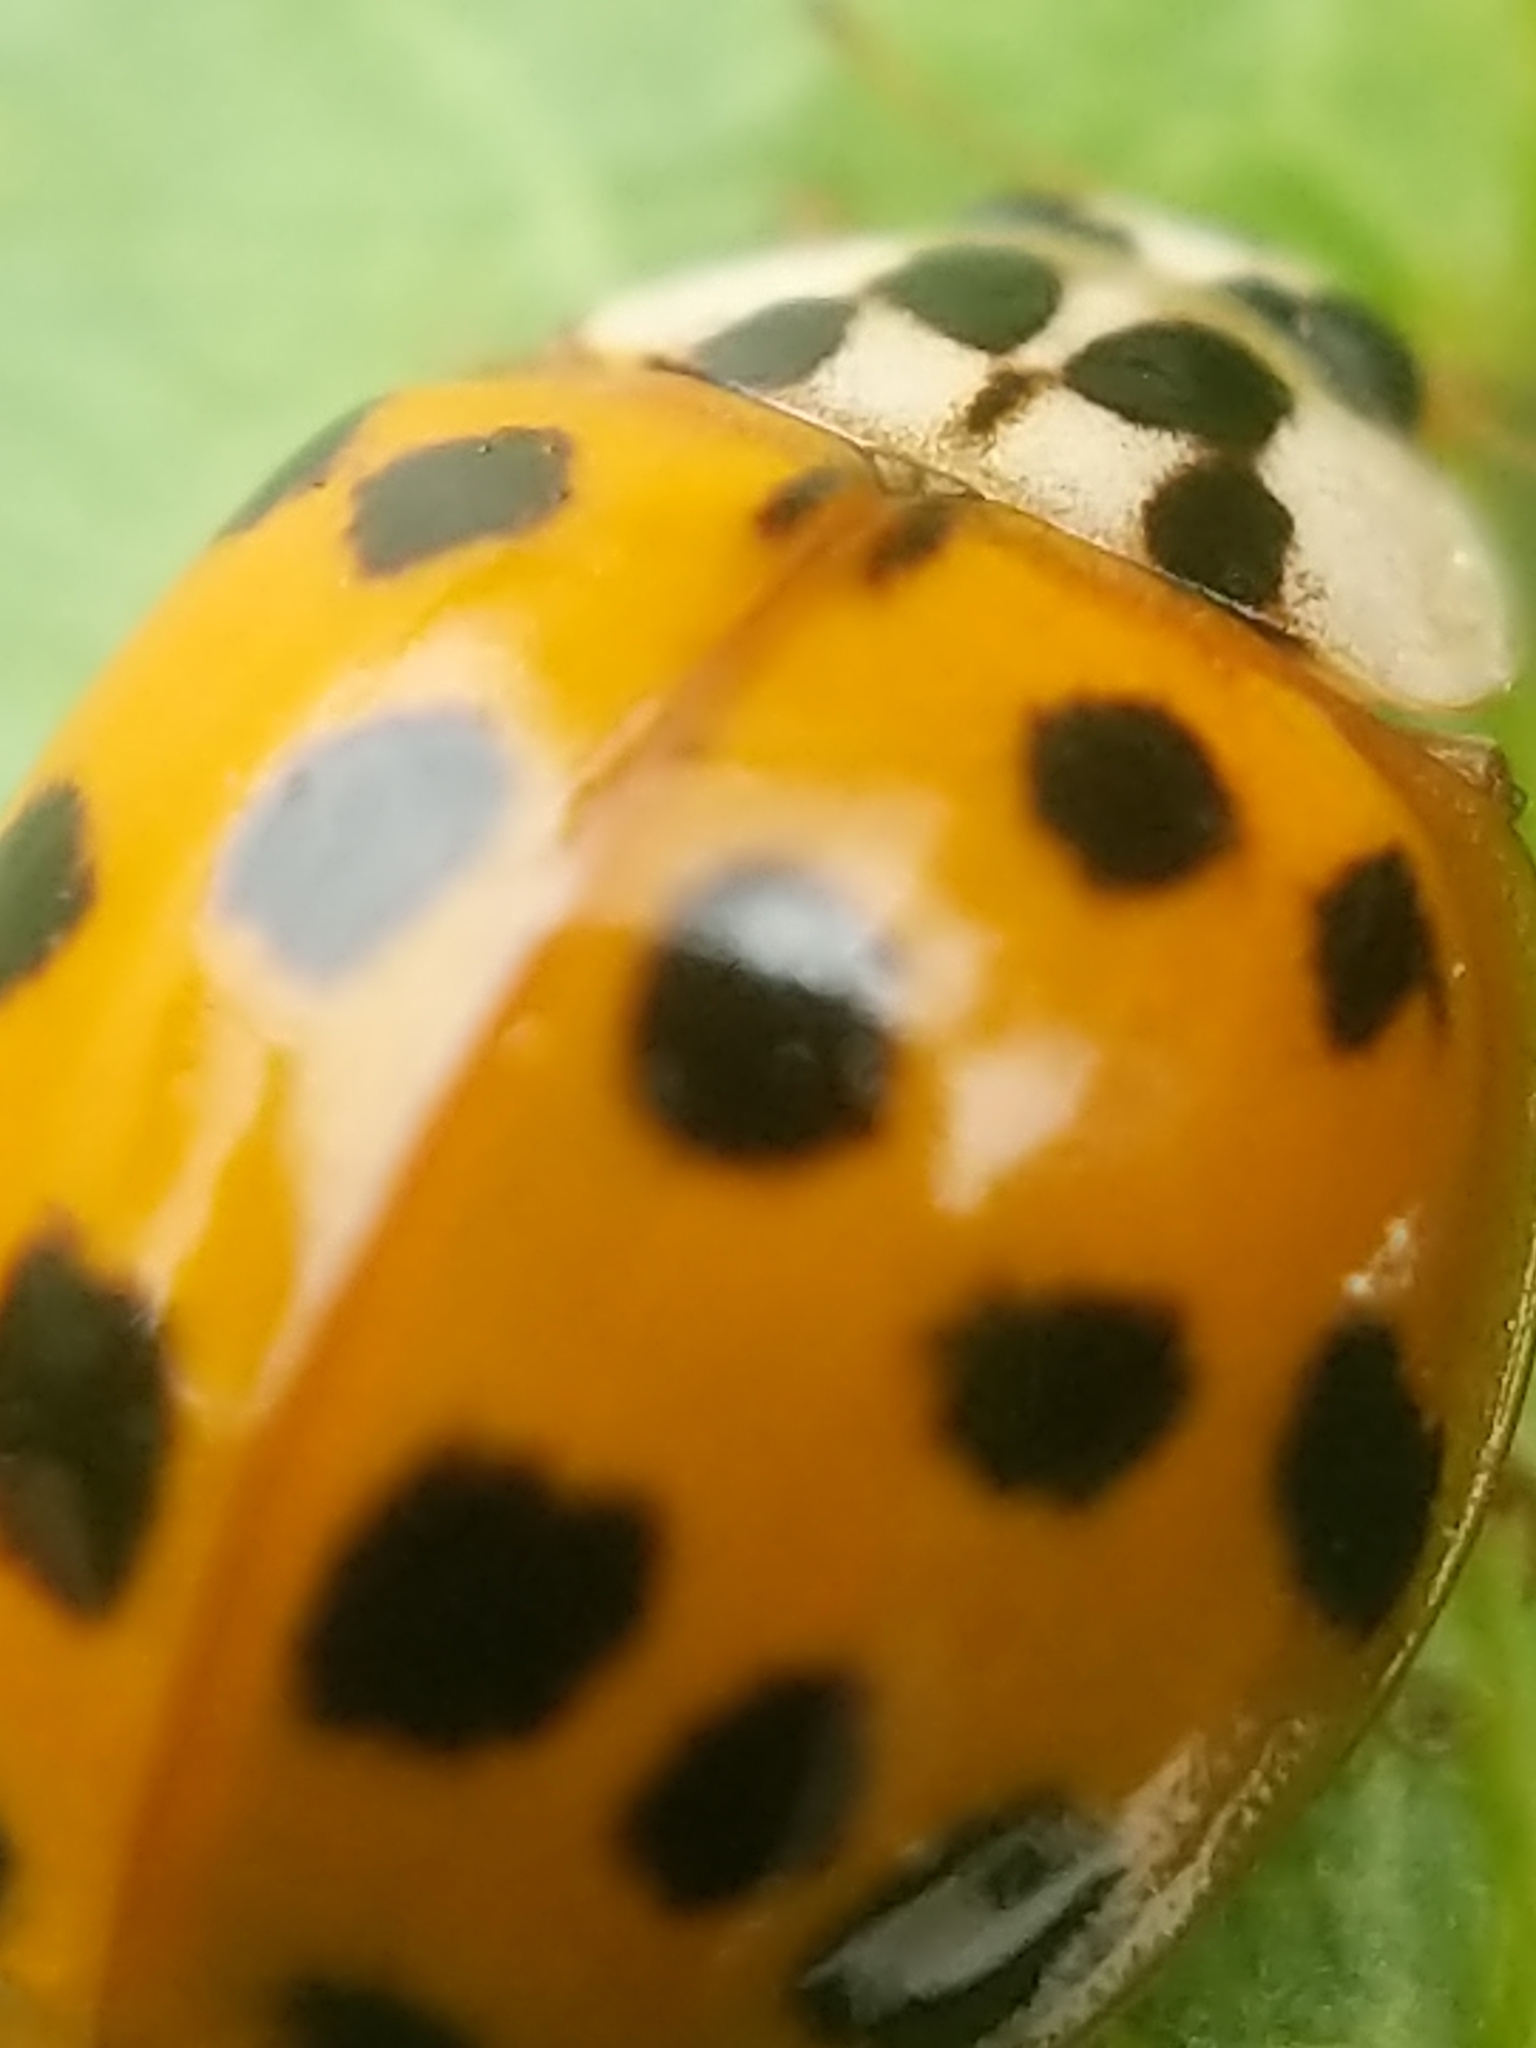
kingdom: Animalia
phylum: Arthropoda
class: Insecta
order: Coleoptera
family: Coccinellidae
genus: Harmonia
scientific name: Harmonia axyridis
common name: Harlequin ladybird
